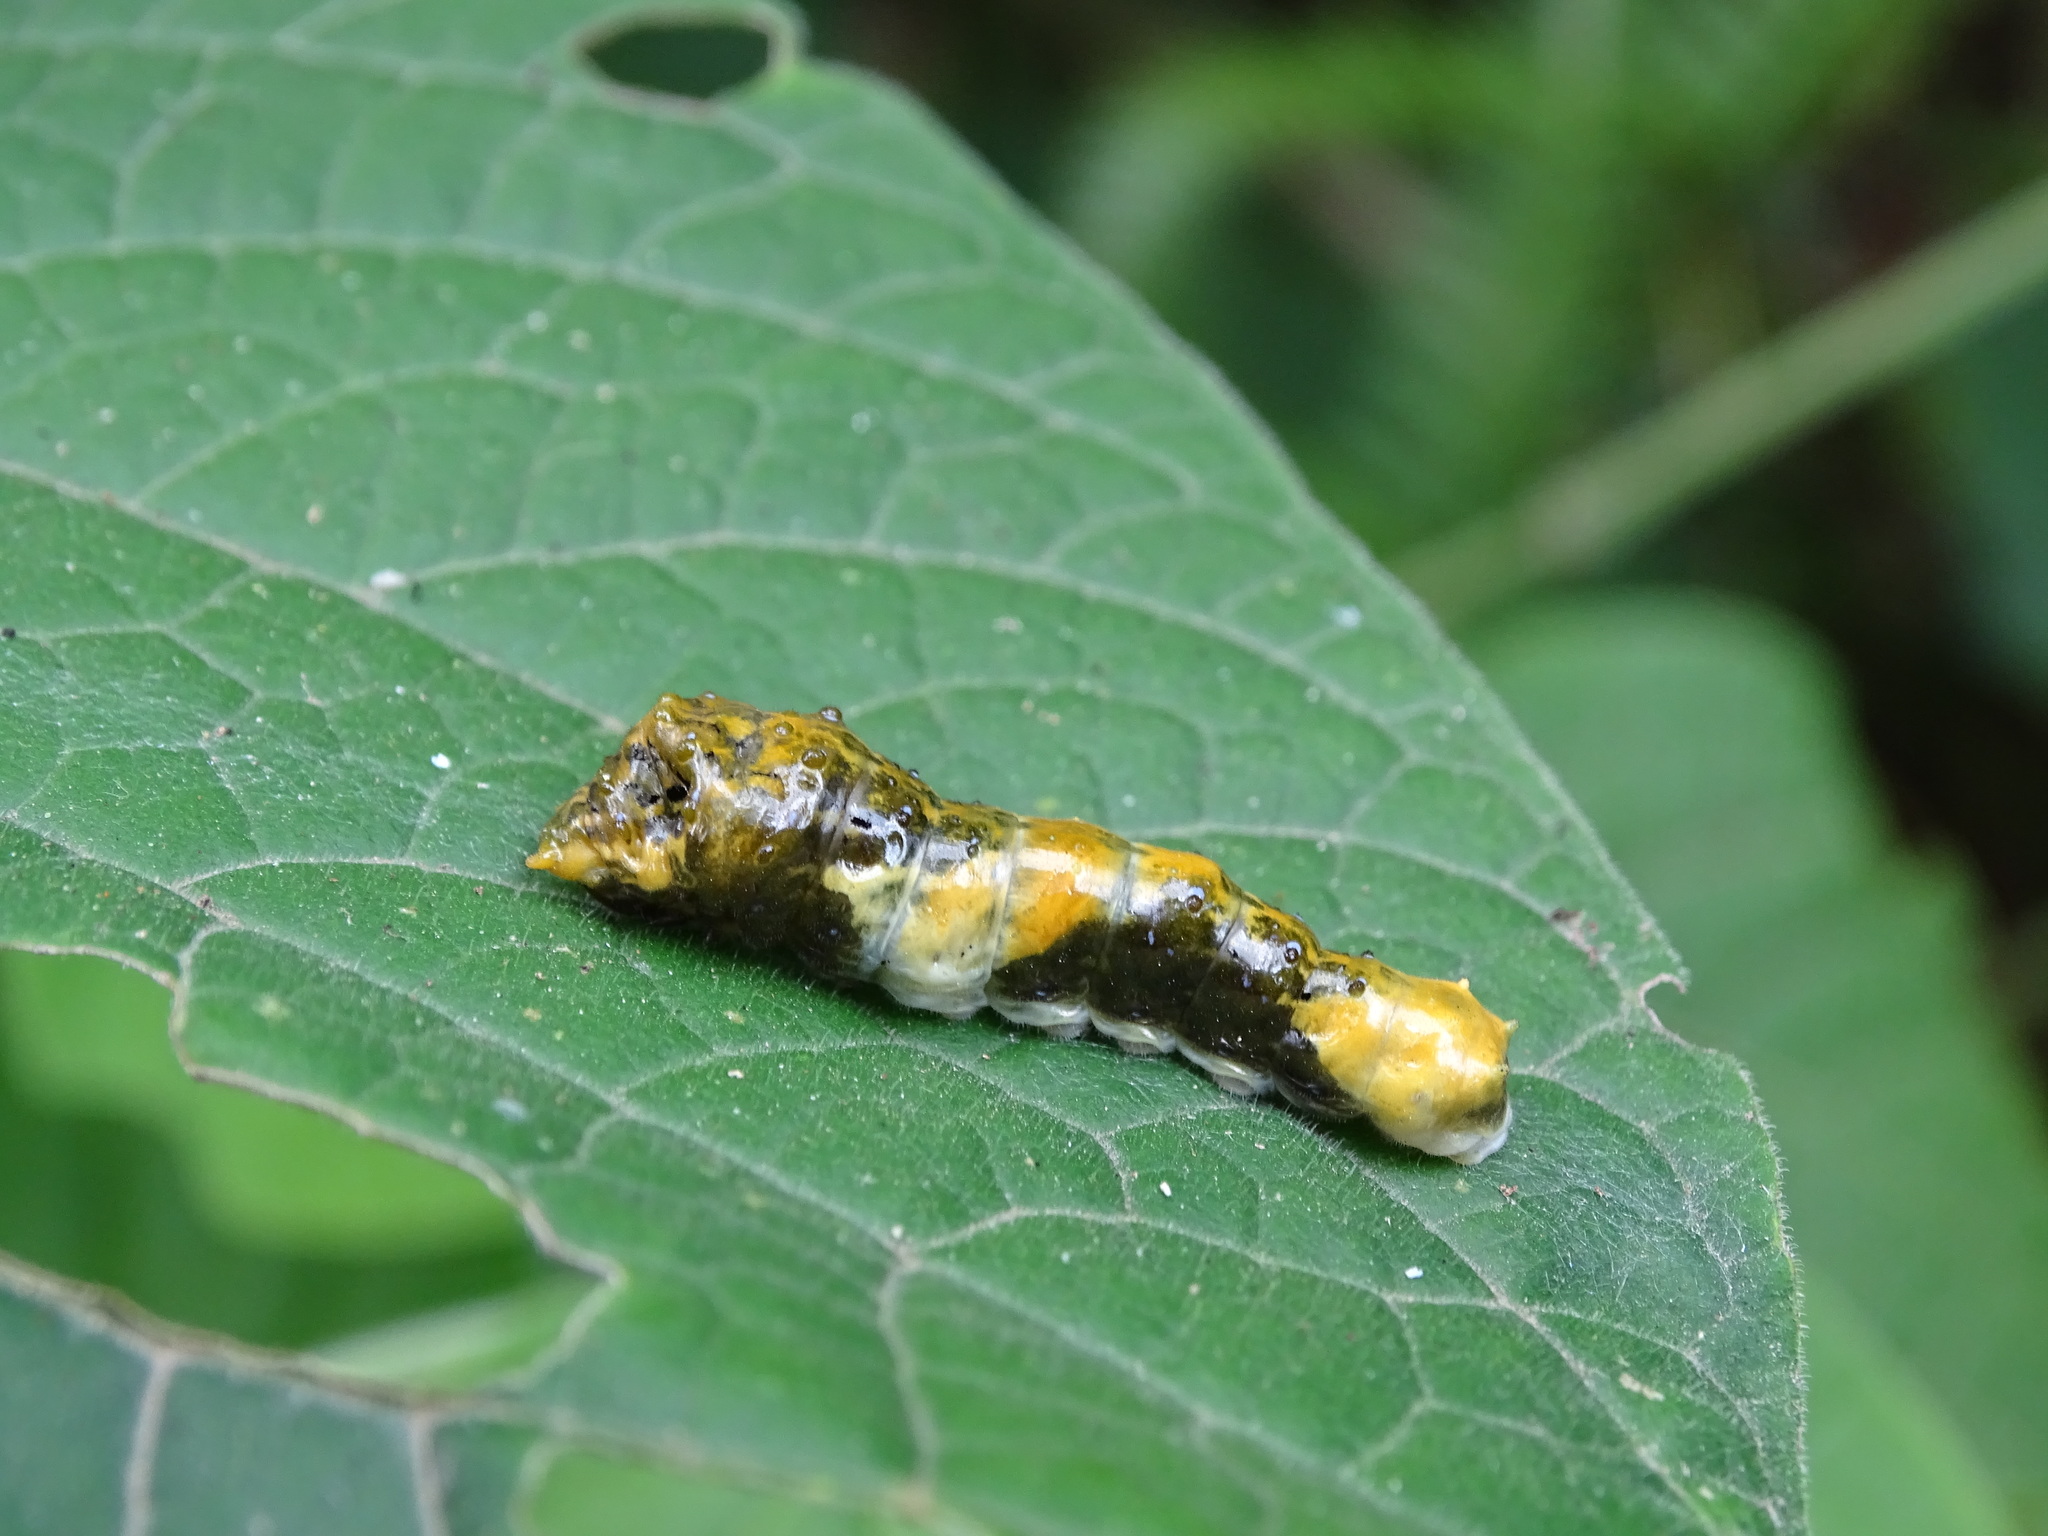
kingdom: Animalia
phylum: Arthropoda
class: Insecta
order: Lepidoptera
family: Papilionidae
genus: Papilio
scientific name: Papilio thoas
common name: King swallowtail
